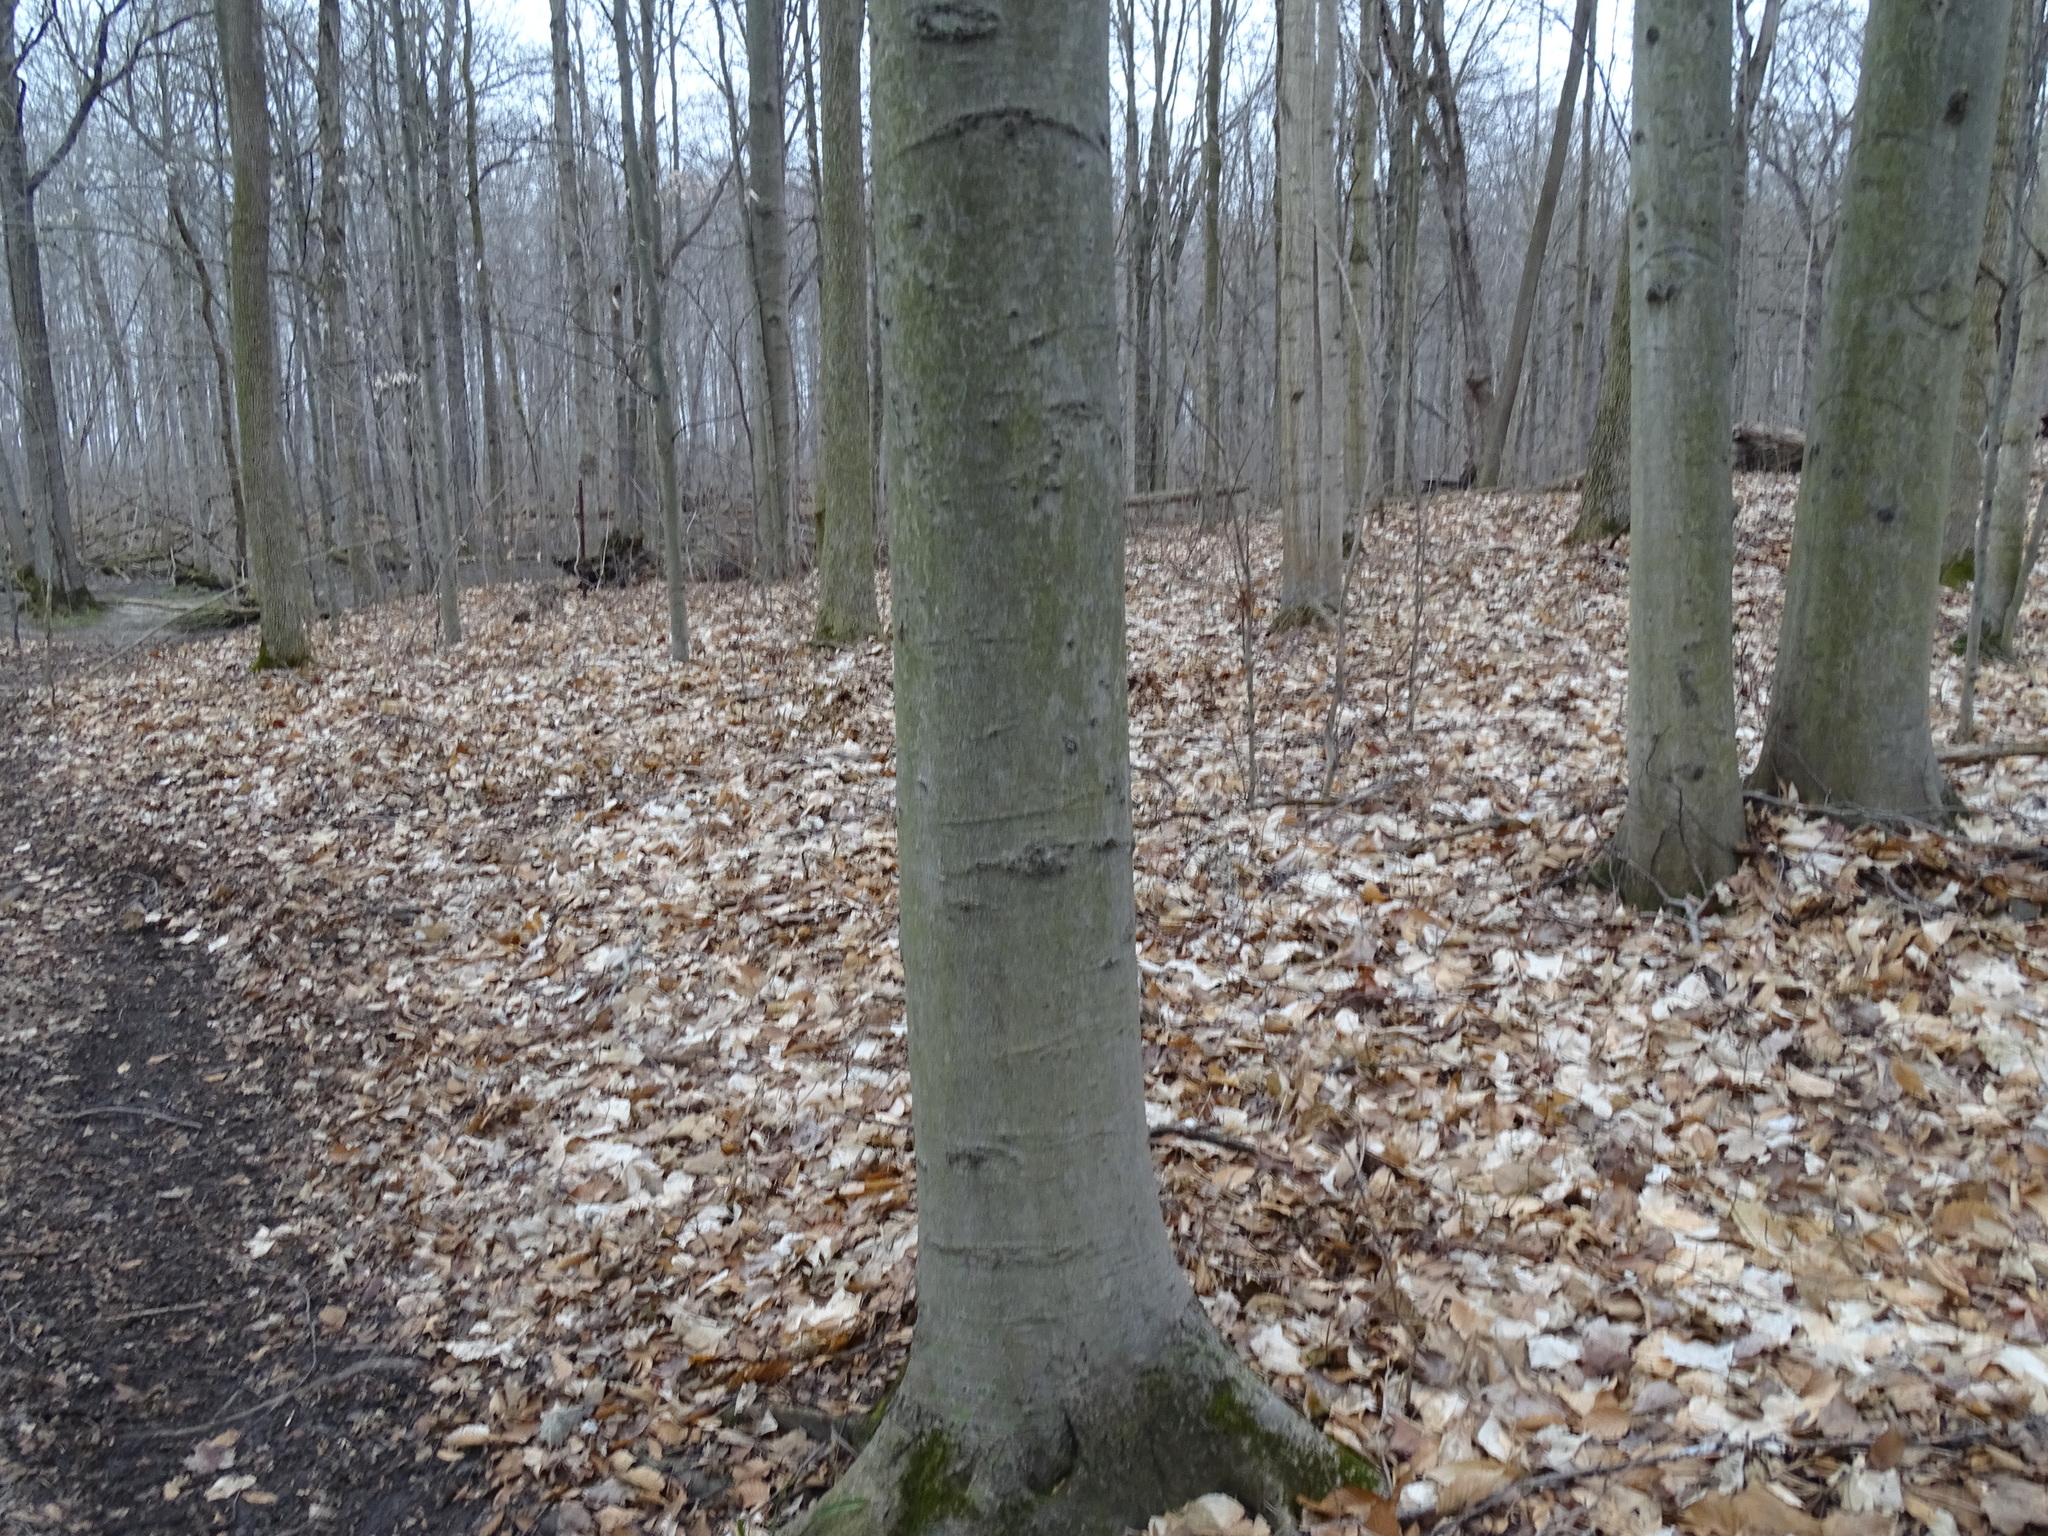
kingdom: Plantae
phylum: Tracheophyta
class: Magnoliopsida
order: Fagales
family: Fagaceae
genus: Fagus
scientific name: Fagus grandifolia
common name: American beech
